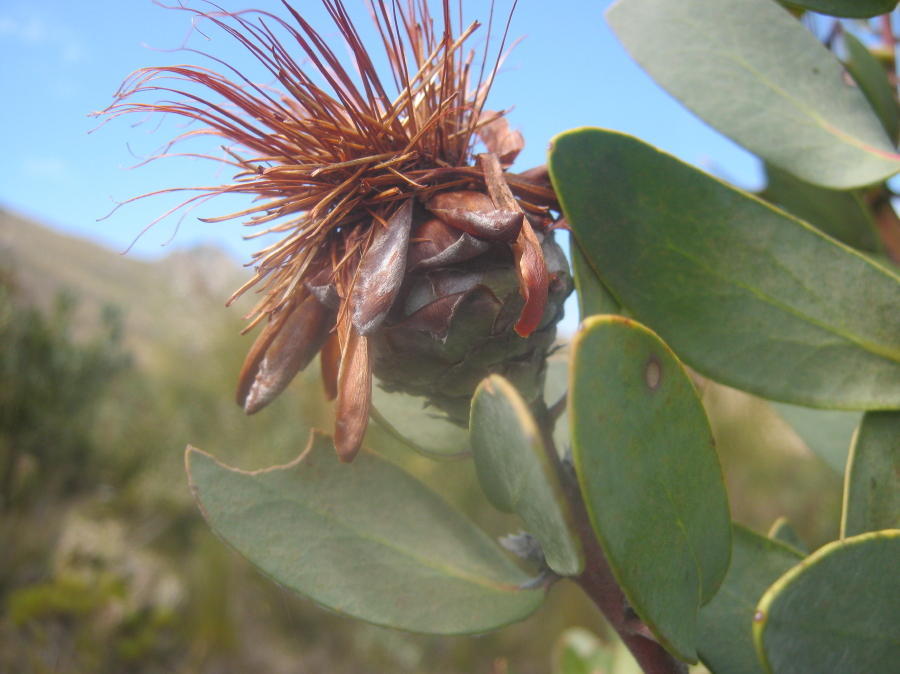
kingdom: Plantae
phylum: Tracheophyta
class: Magnoliopsida
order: Proteales
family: Proteaceae
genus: Protea
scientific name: Protea punctata
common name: Water sugarbush
